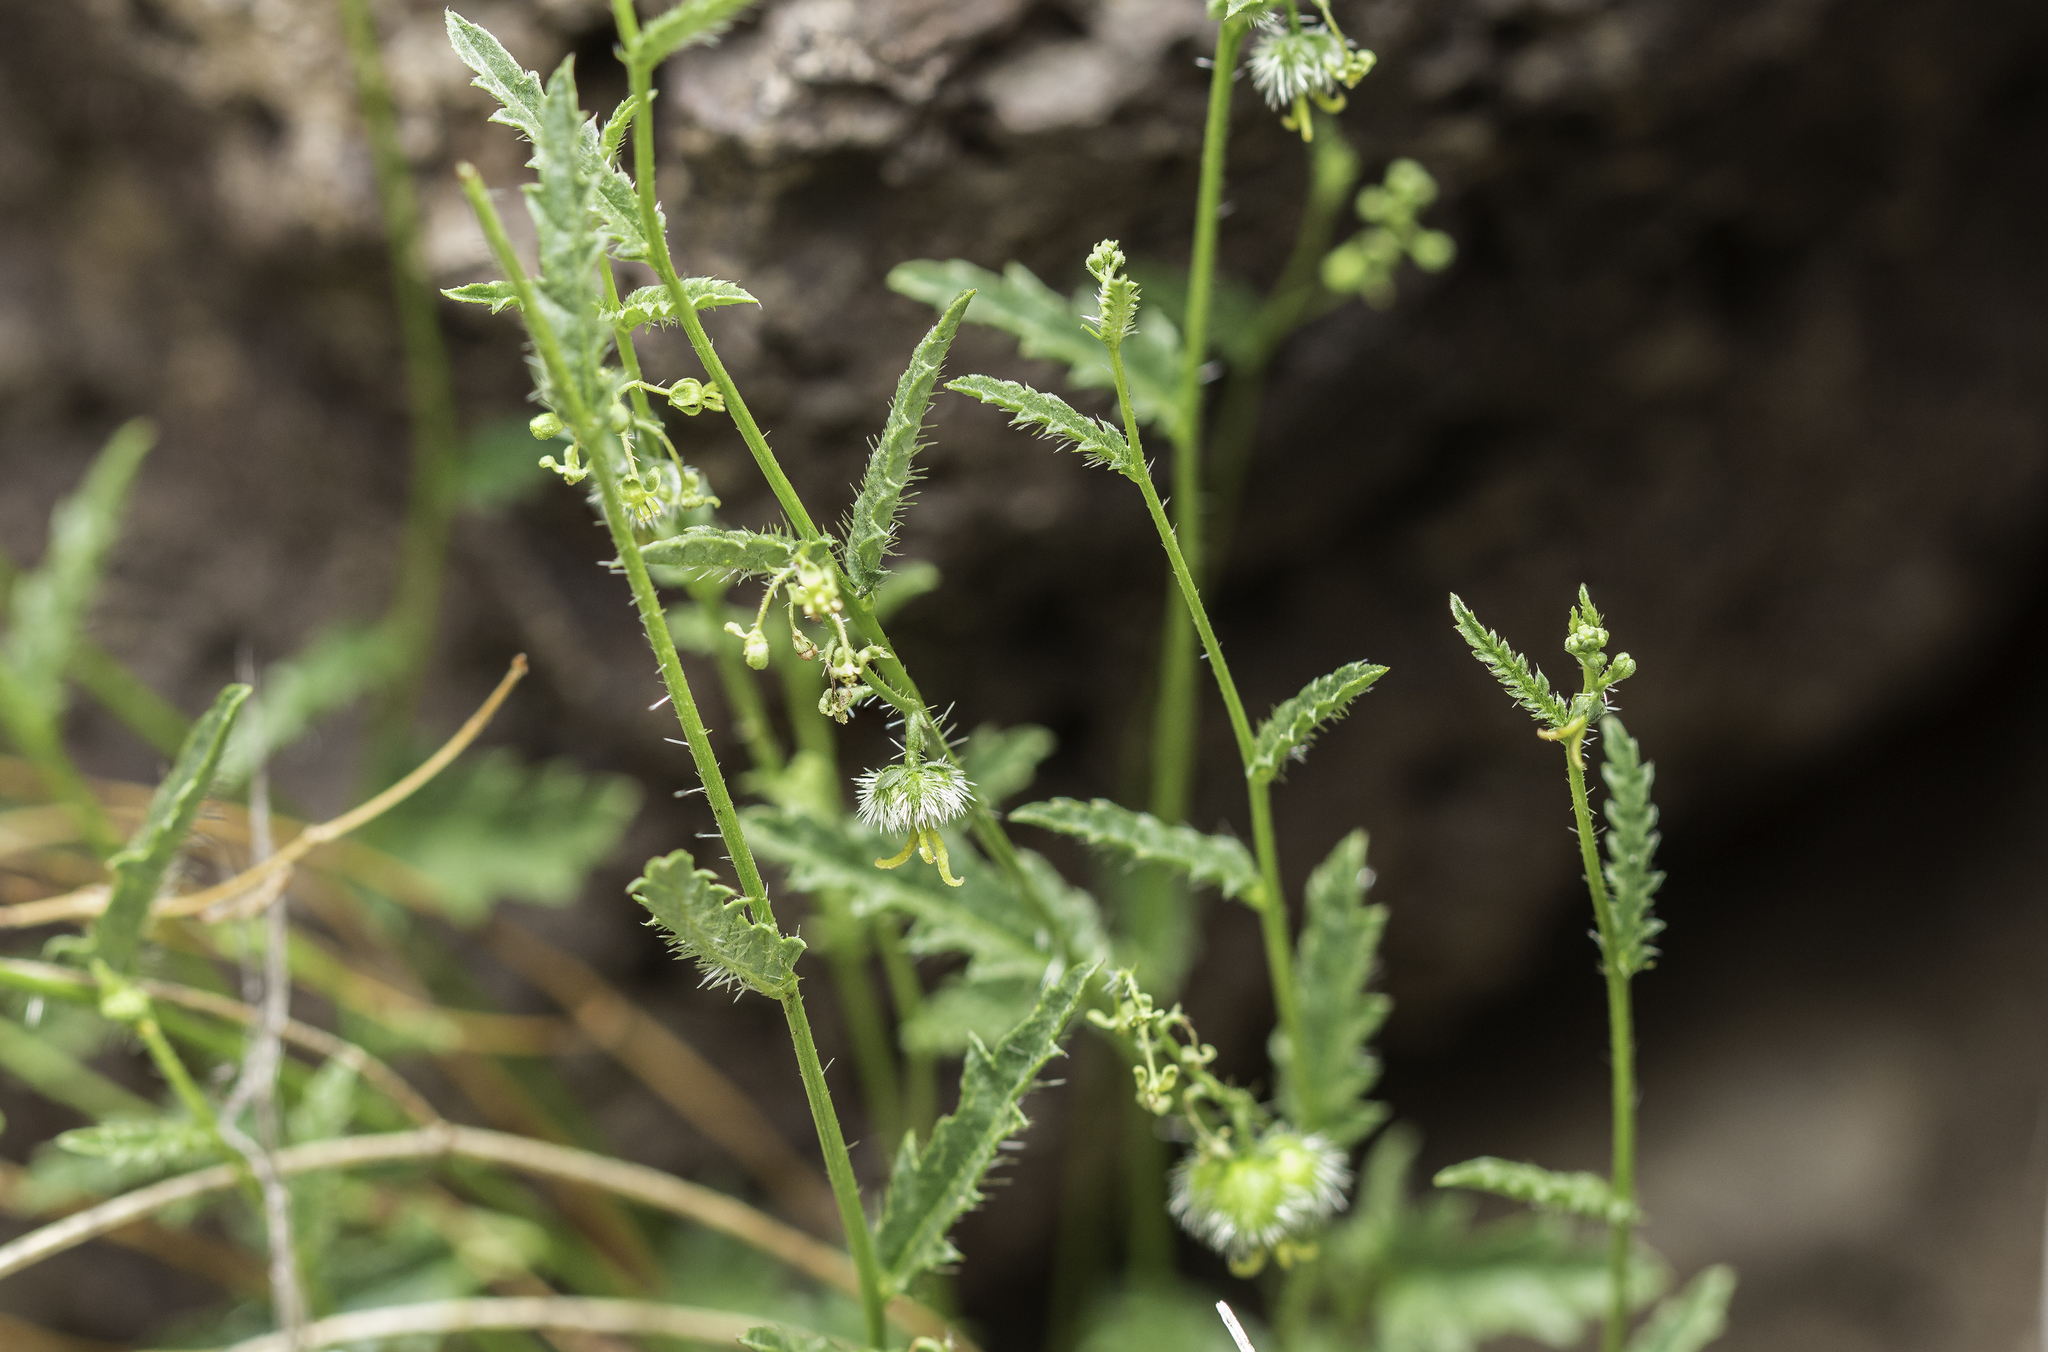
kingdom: Plantae
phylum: Tracheophyta
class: Magnoliopsida
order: Malpighiales
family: Euphorbiaceae
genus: Tragia
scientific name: Tragia nepetifolia
